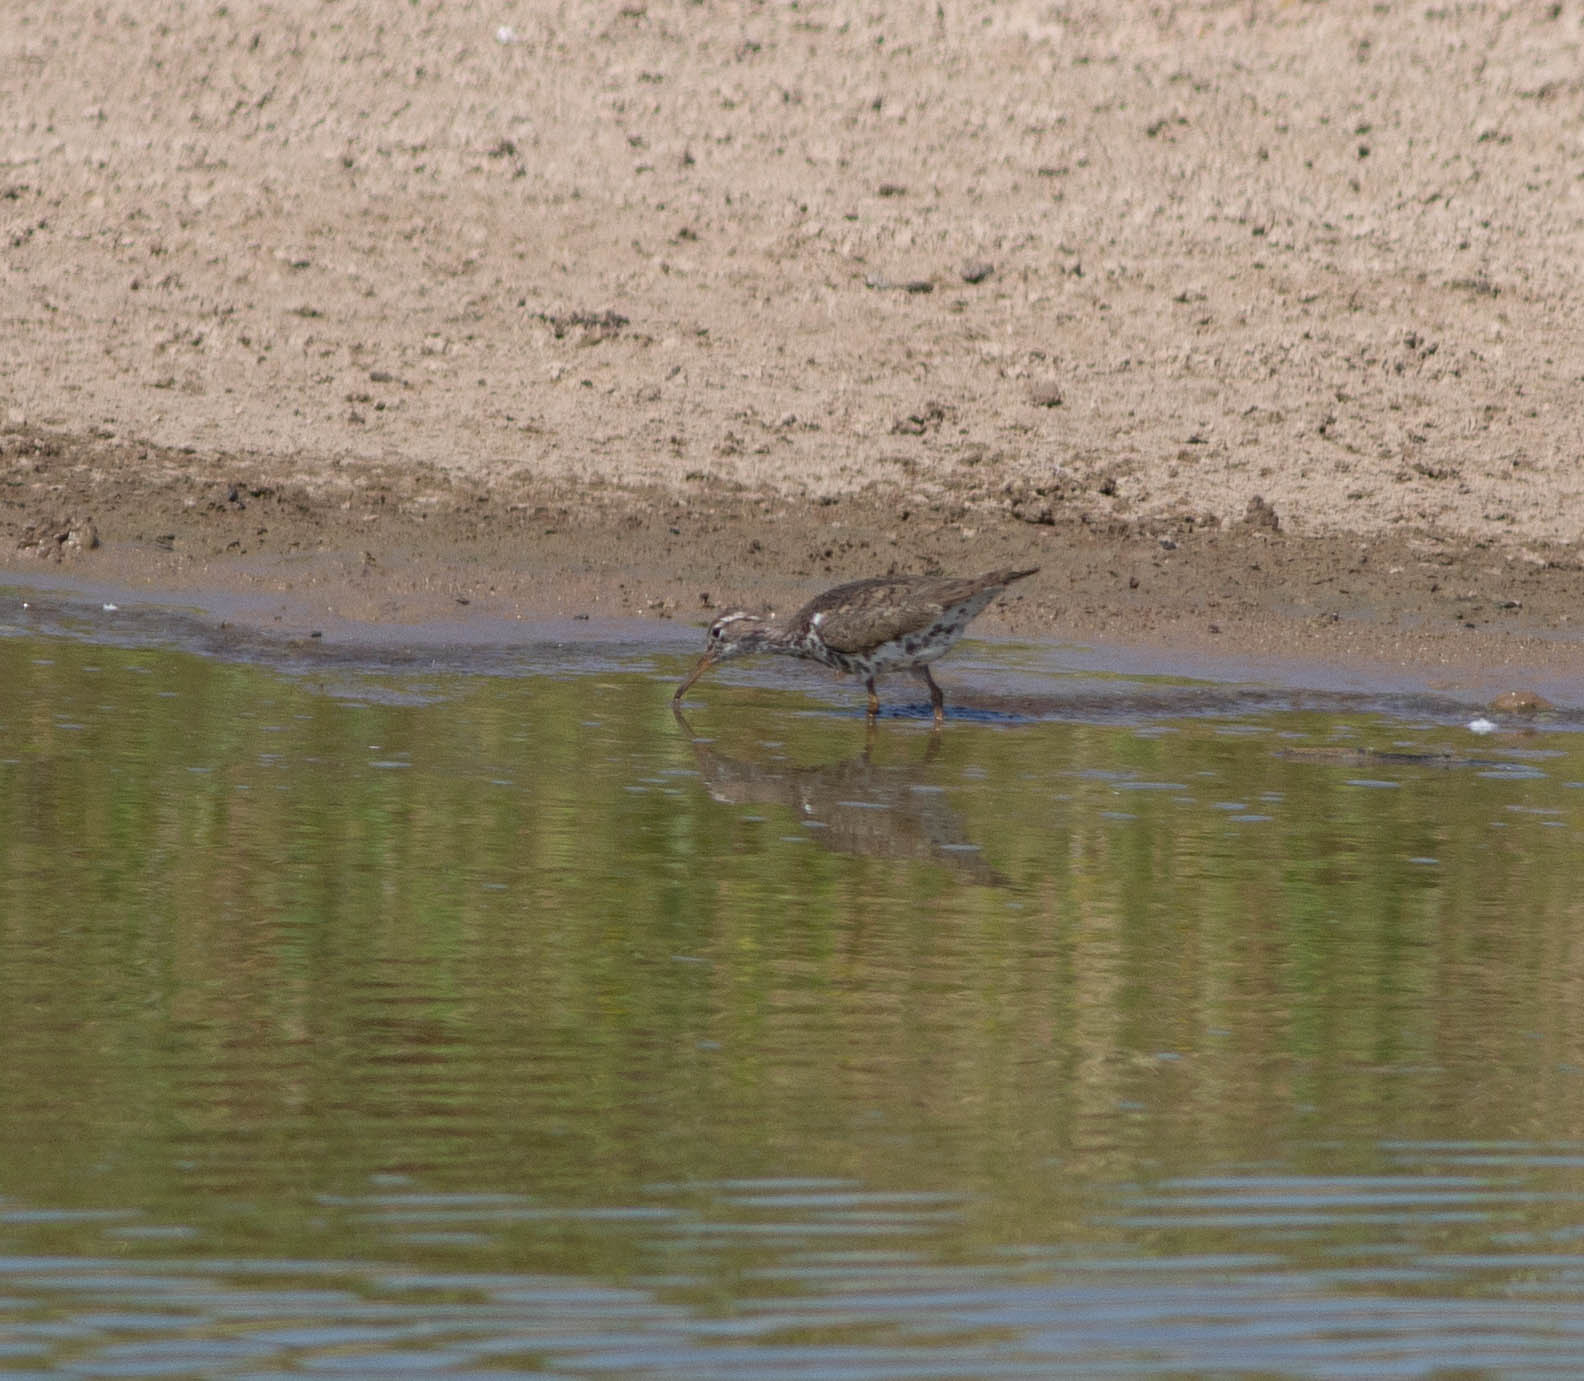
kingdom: Animalia
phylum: Chordata
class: Aves
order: Charadriiformes
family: Scolopacidae
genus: Actitis
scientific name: Actitis macularius
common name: Spotted sandpiper
